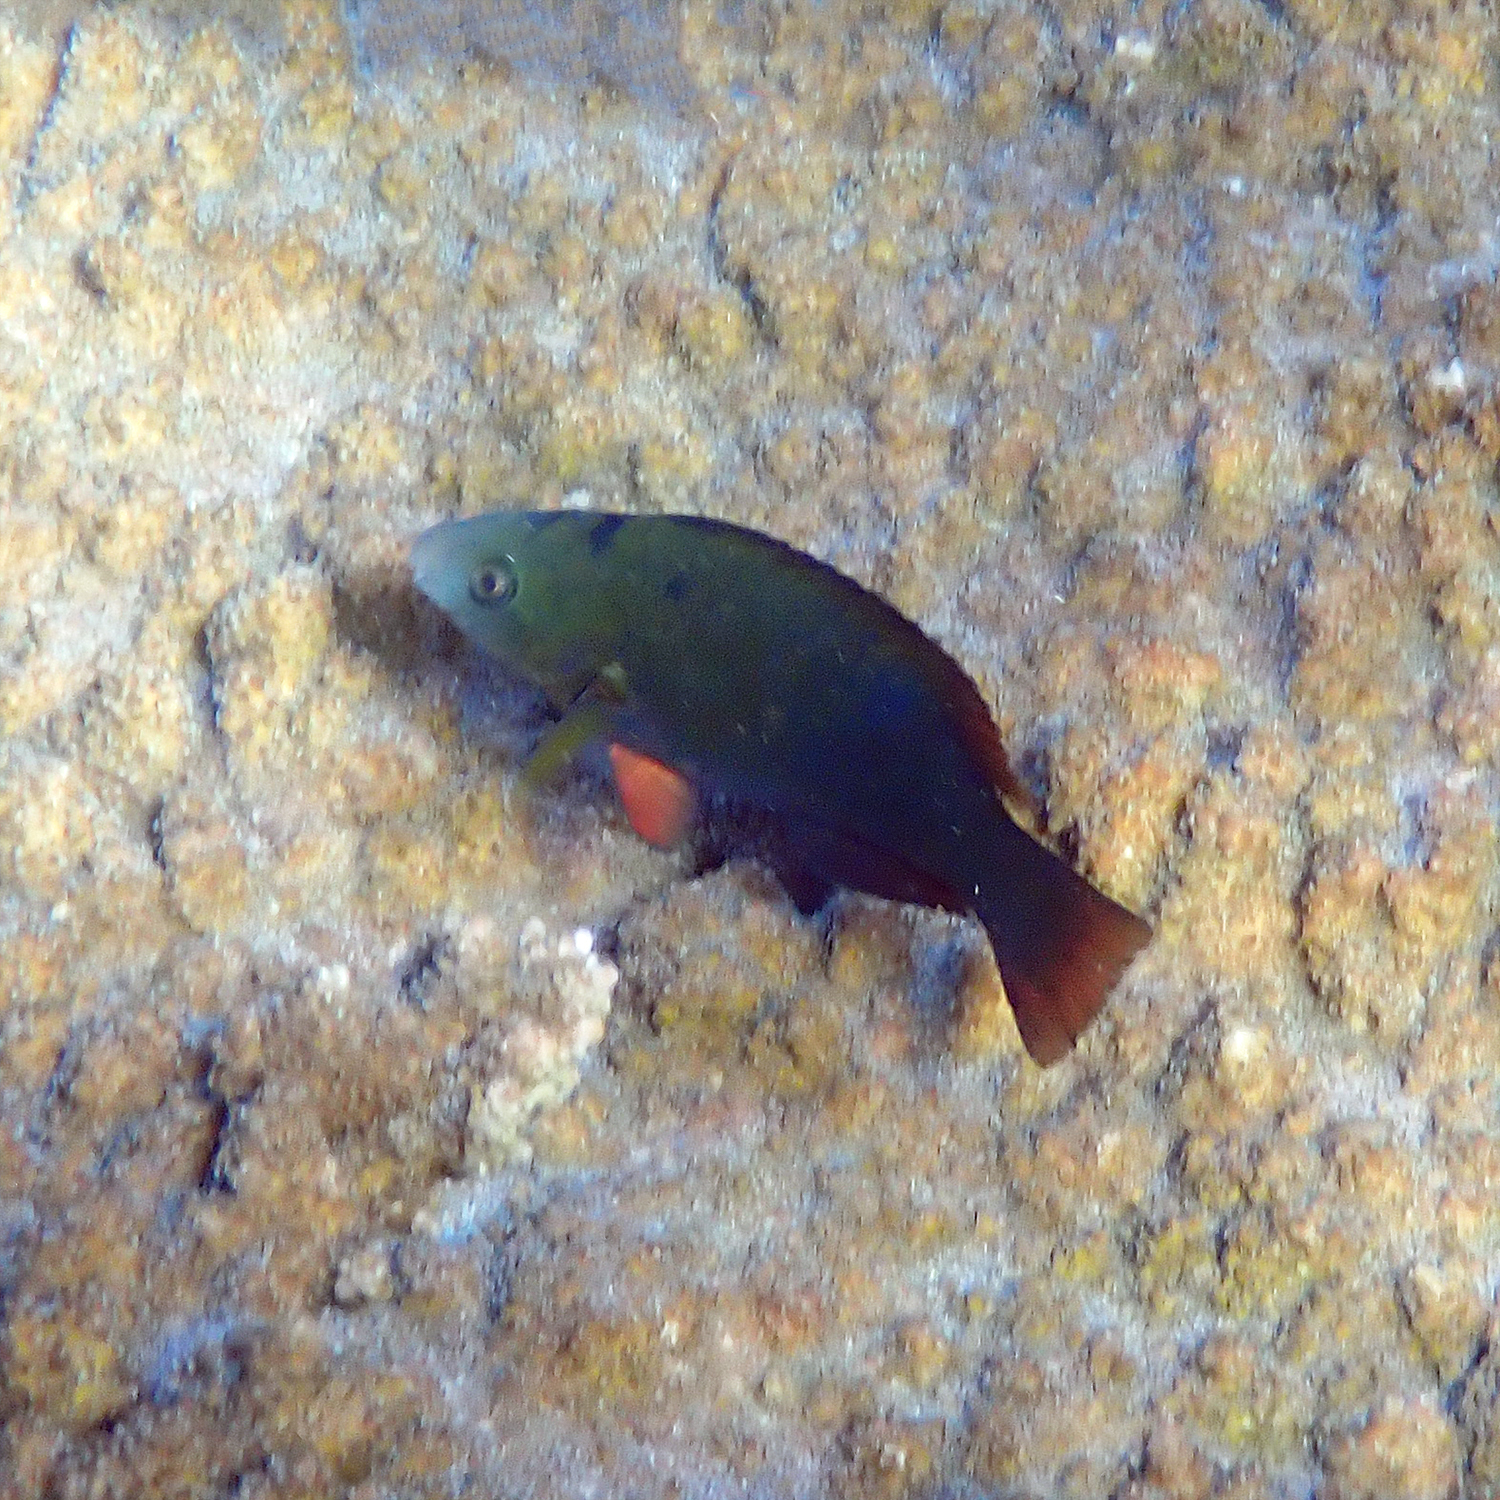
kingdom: Animalia
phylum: Chordata
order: Perciformes
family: Scaridae
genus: Scarus
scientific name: Scarus psittacus
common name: Palenose parrotfish
